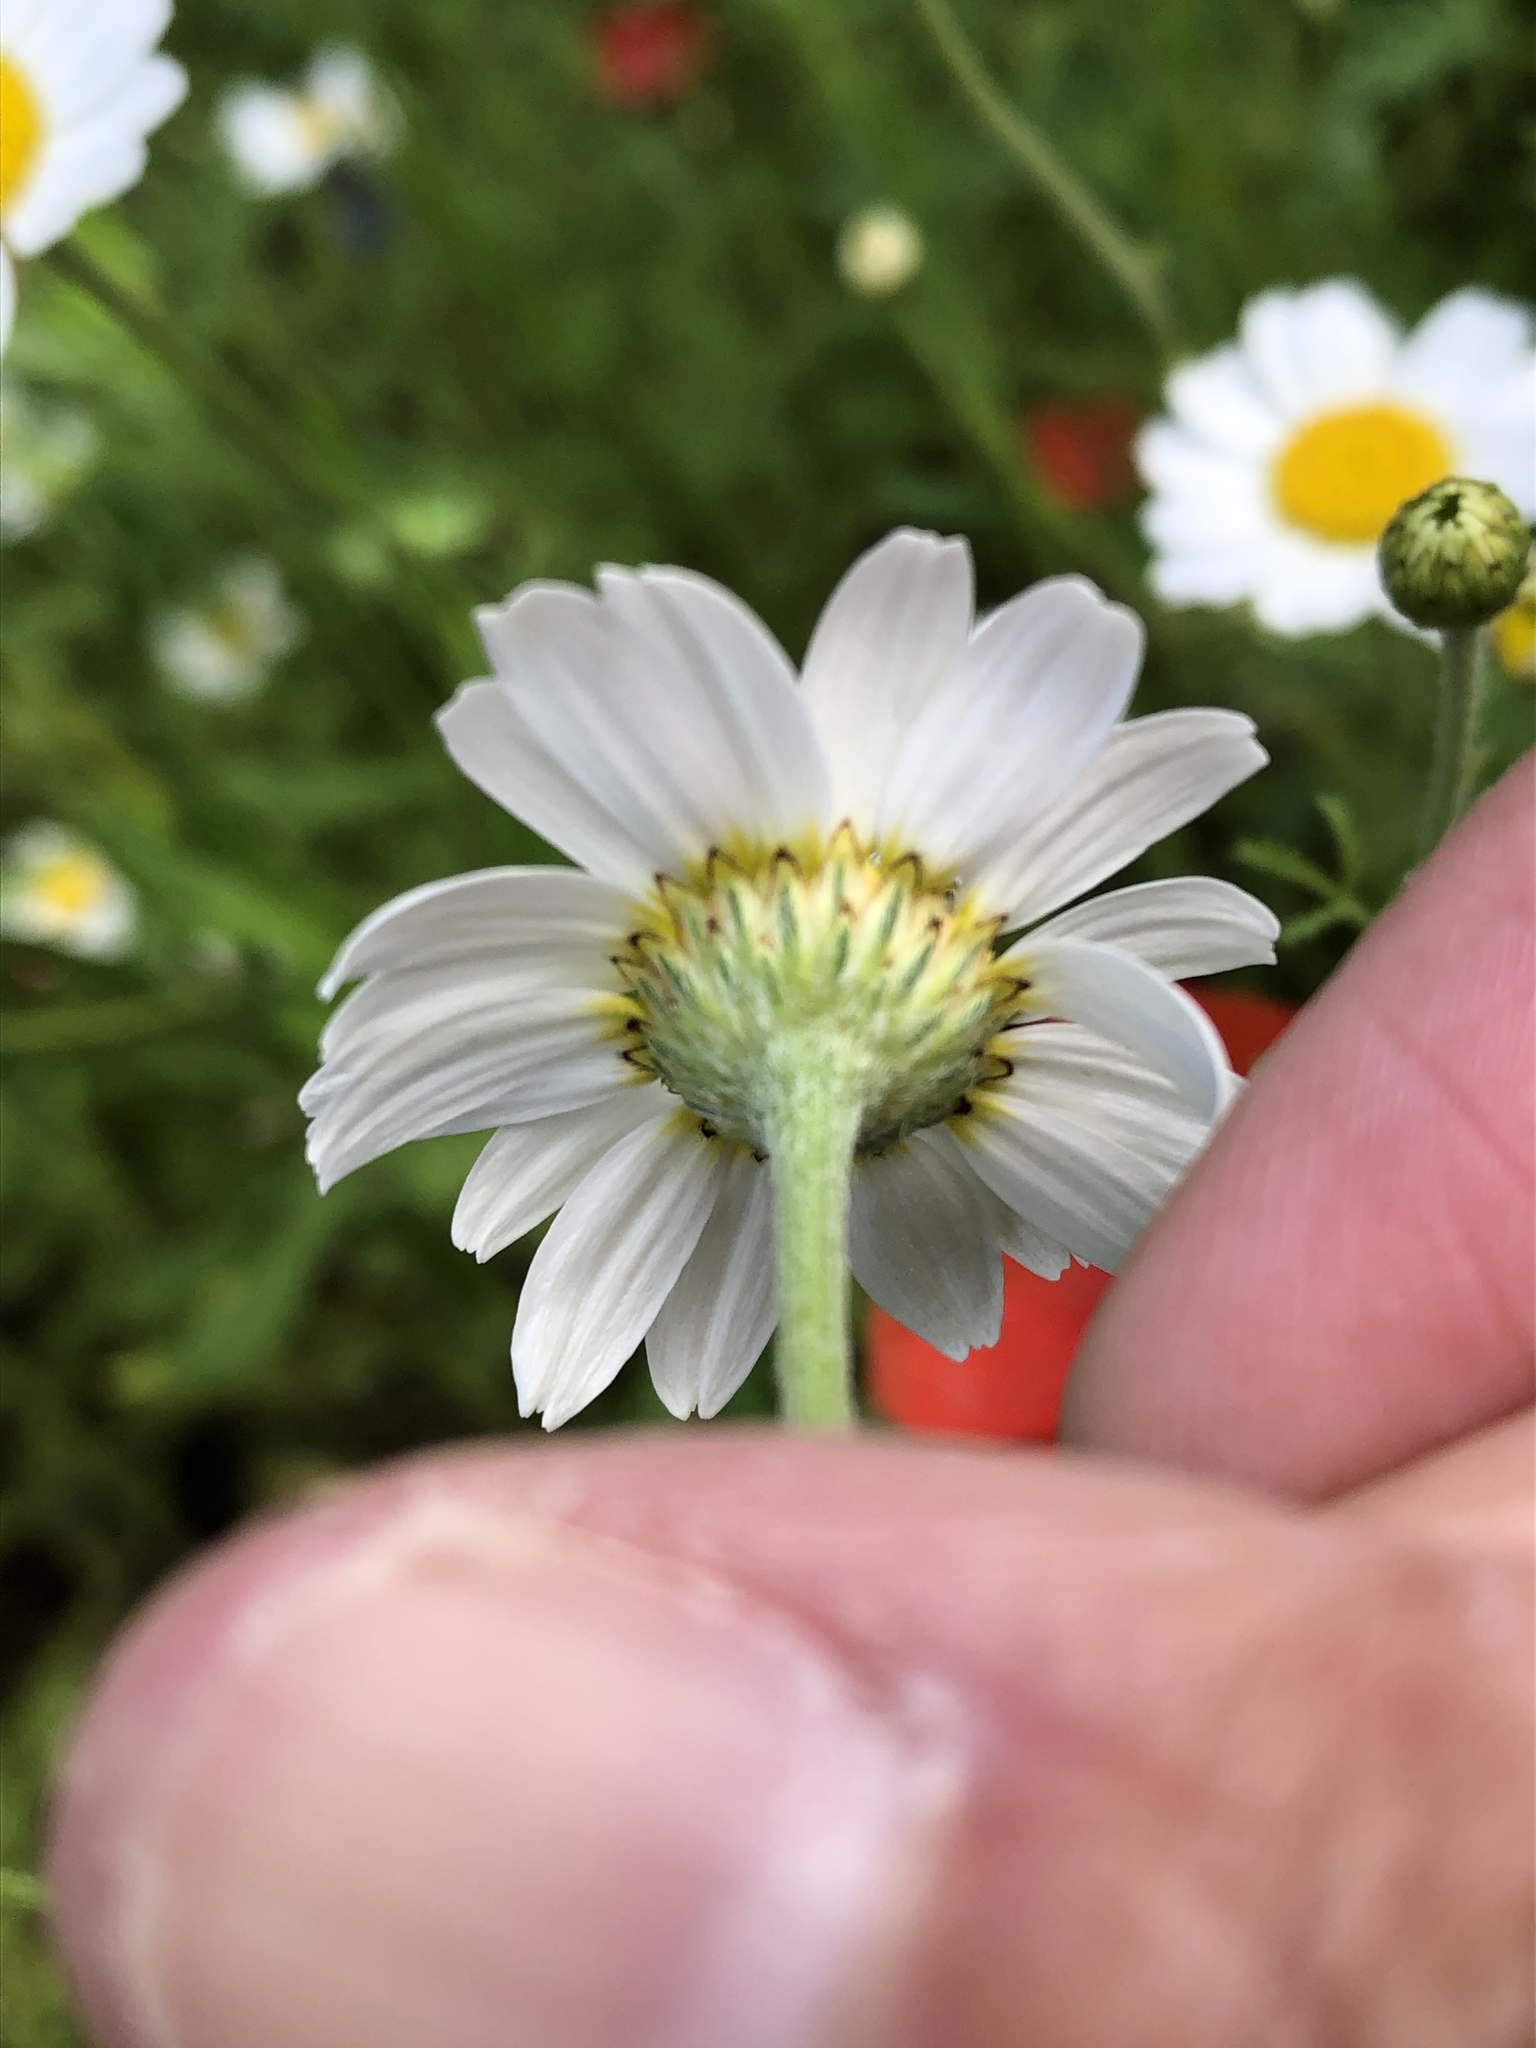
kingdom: Plantae
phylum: Tracheophyta
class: Magnoliopsida
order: Asterales
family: Asteraceae
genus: Cota
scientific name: Cota austriaca
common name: Austrian chamomile
